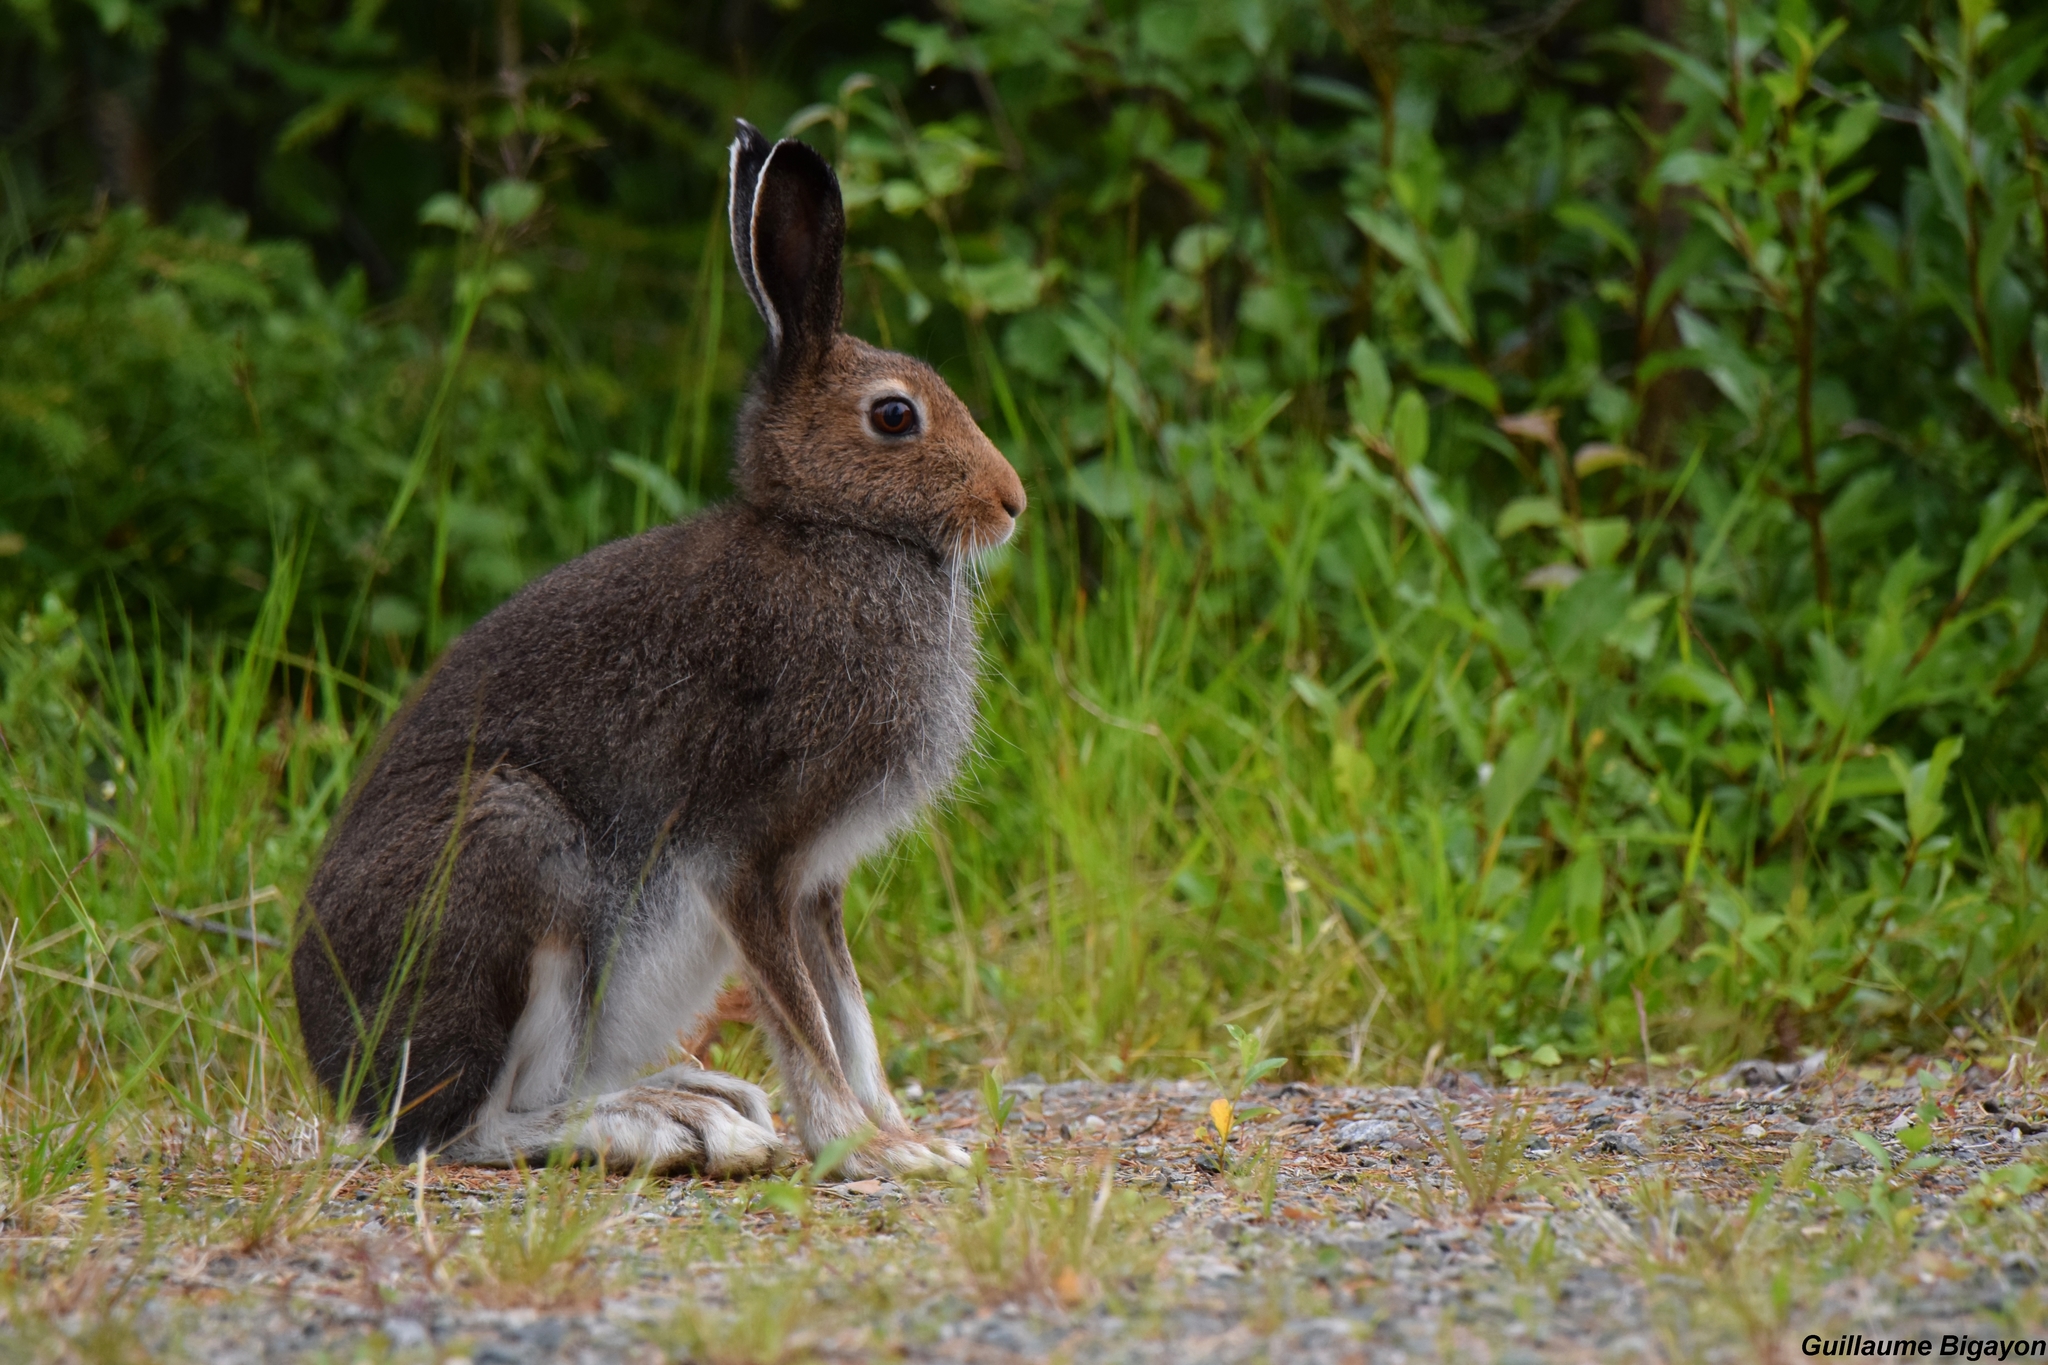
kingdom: Animalia
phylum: Chordata
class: Mammalia
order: Lagomorpha
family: Leporidae
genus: Lepus
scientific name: Lepus timidus
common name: Mountain hare
